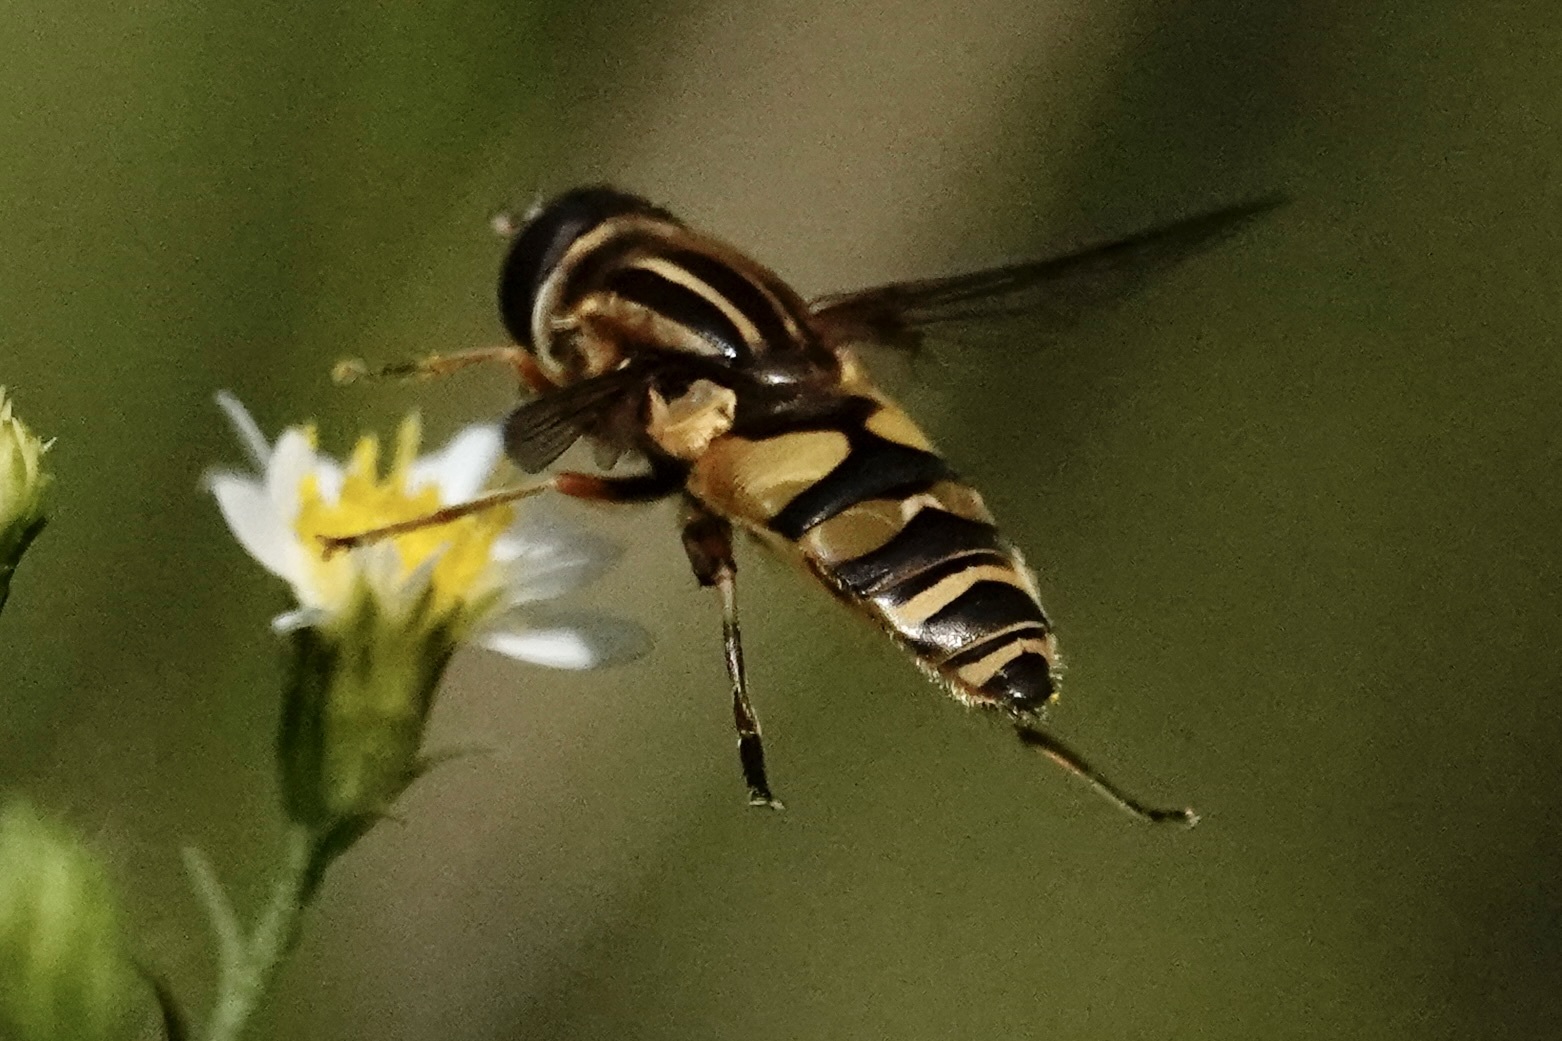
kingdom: Animalia
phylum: Arthropoda
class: Insecta
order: Diptera
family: Syrphidae
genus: Helophilus
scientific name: Helophilus fasciatus
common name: Narrow-headed marsh fly
